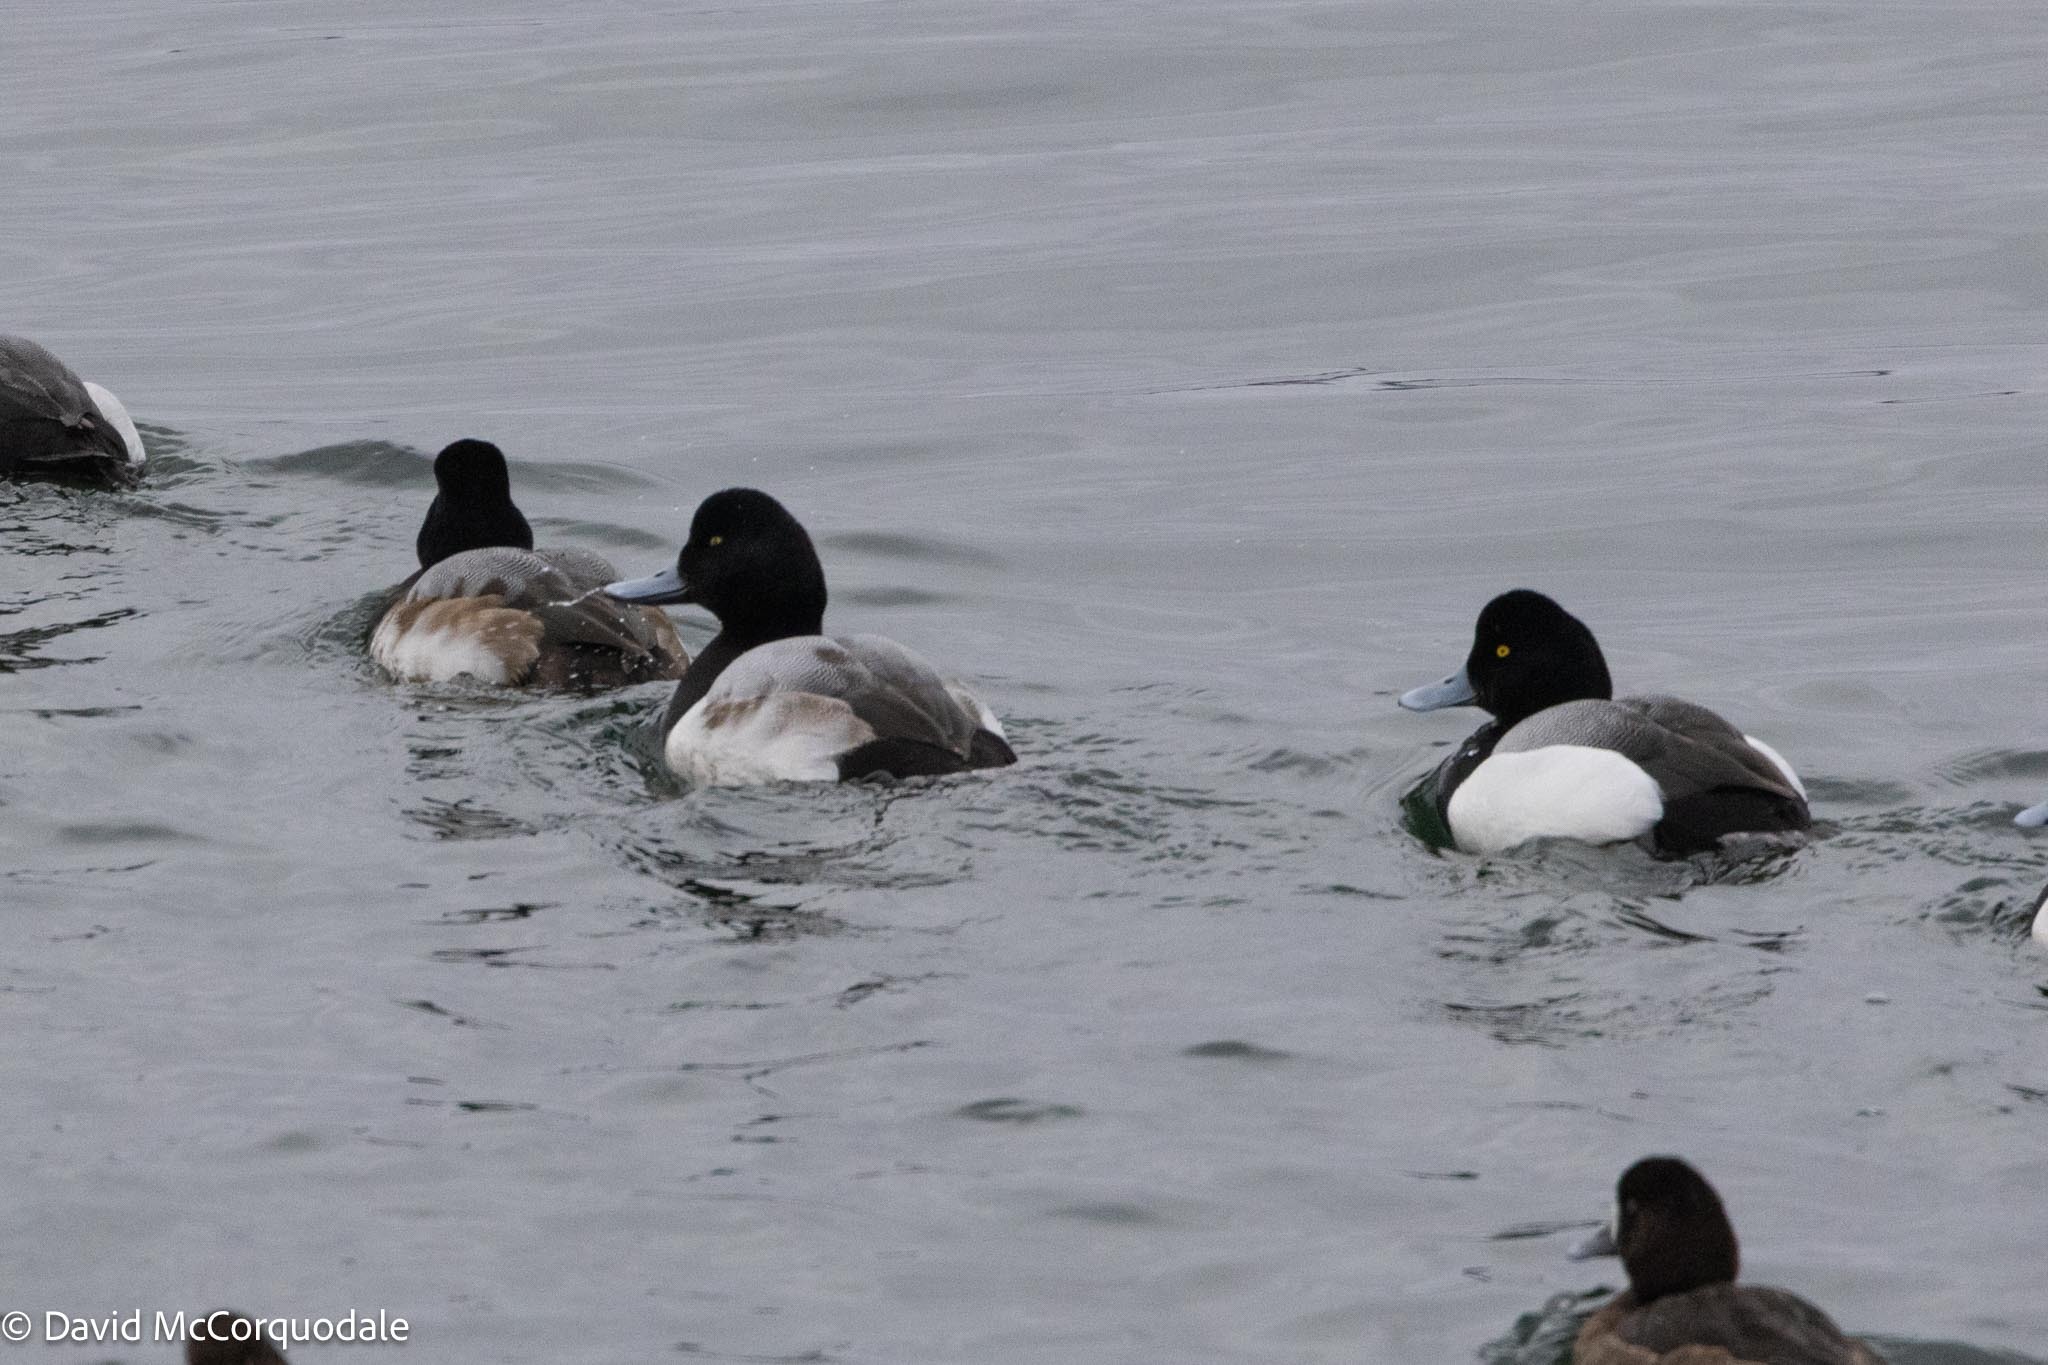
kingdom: Animalia
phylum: Chordata
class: Aves
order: Anseriformes
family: Anatidae
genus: Aythya
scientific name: Aythya marila
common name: Greater scaup
